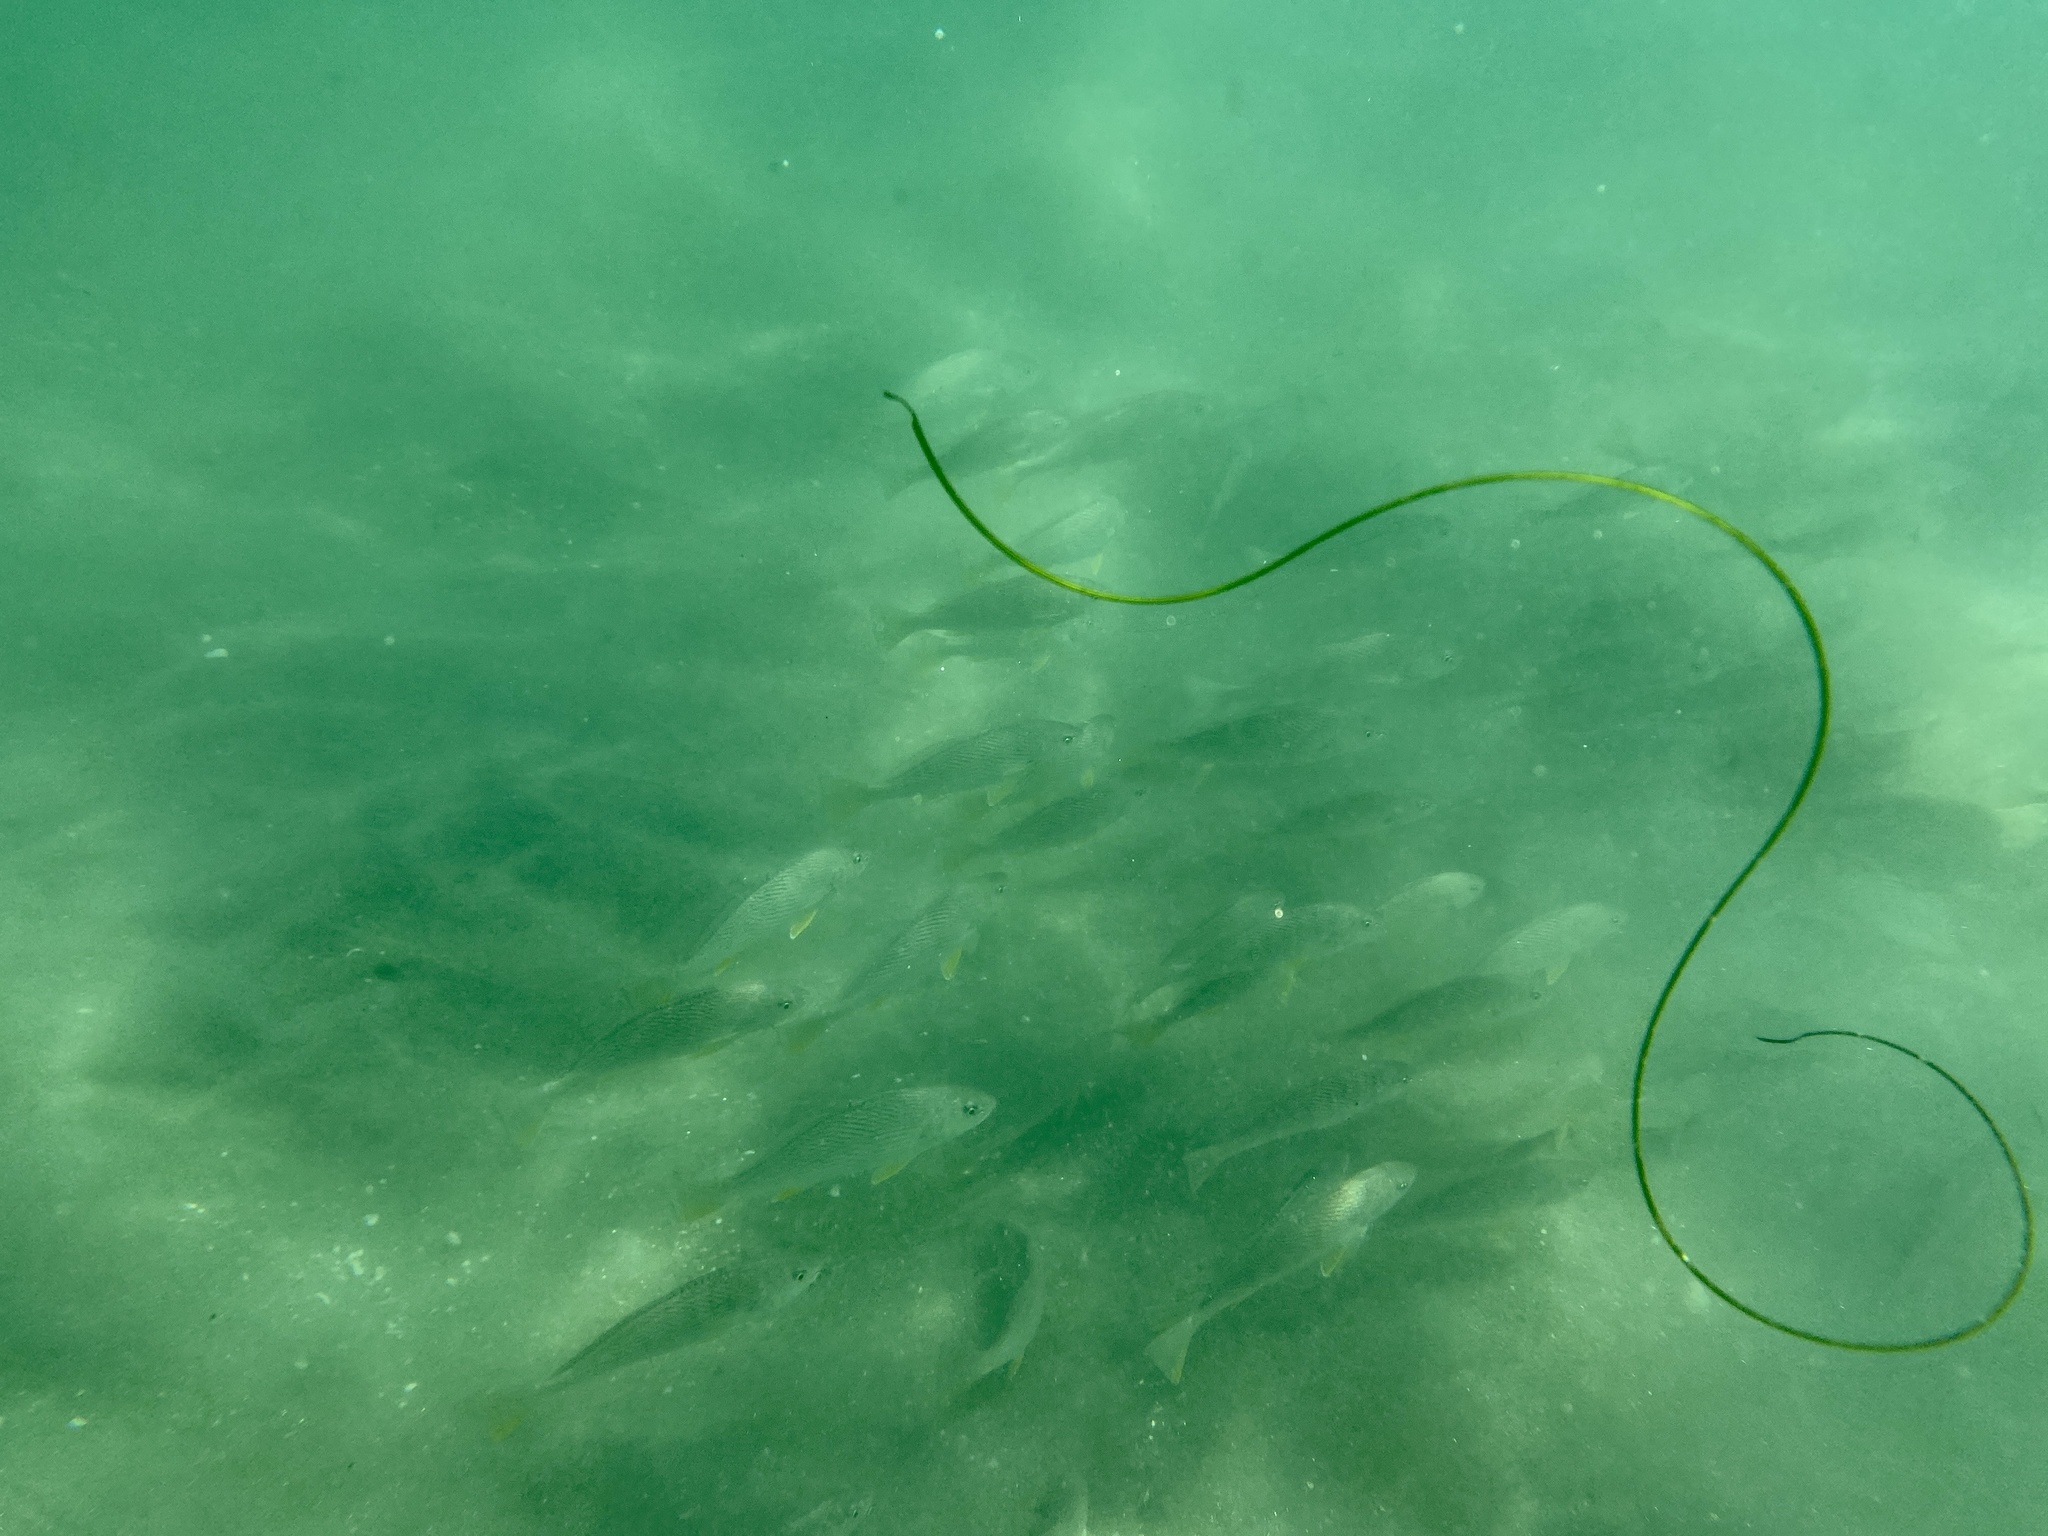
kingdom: Animalia
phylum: Chordata
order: Perciformes
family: Sciaenidae
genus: Umbrina
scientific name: Umbrina roncador
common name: Yellowfin croaker
